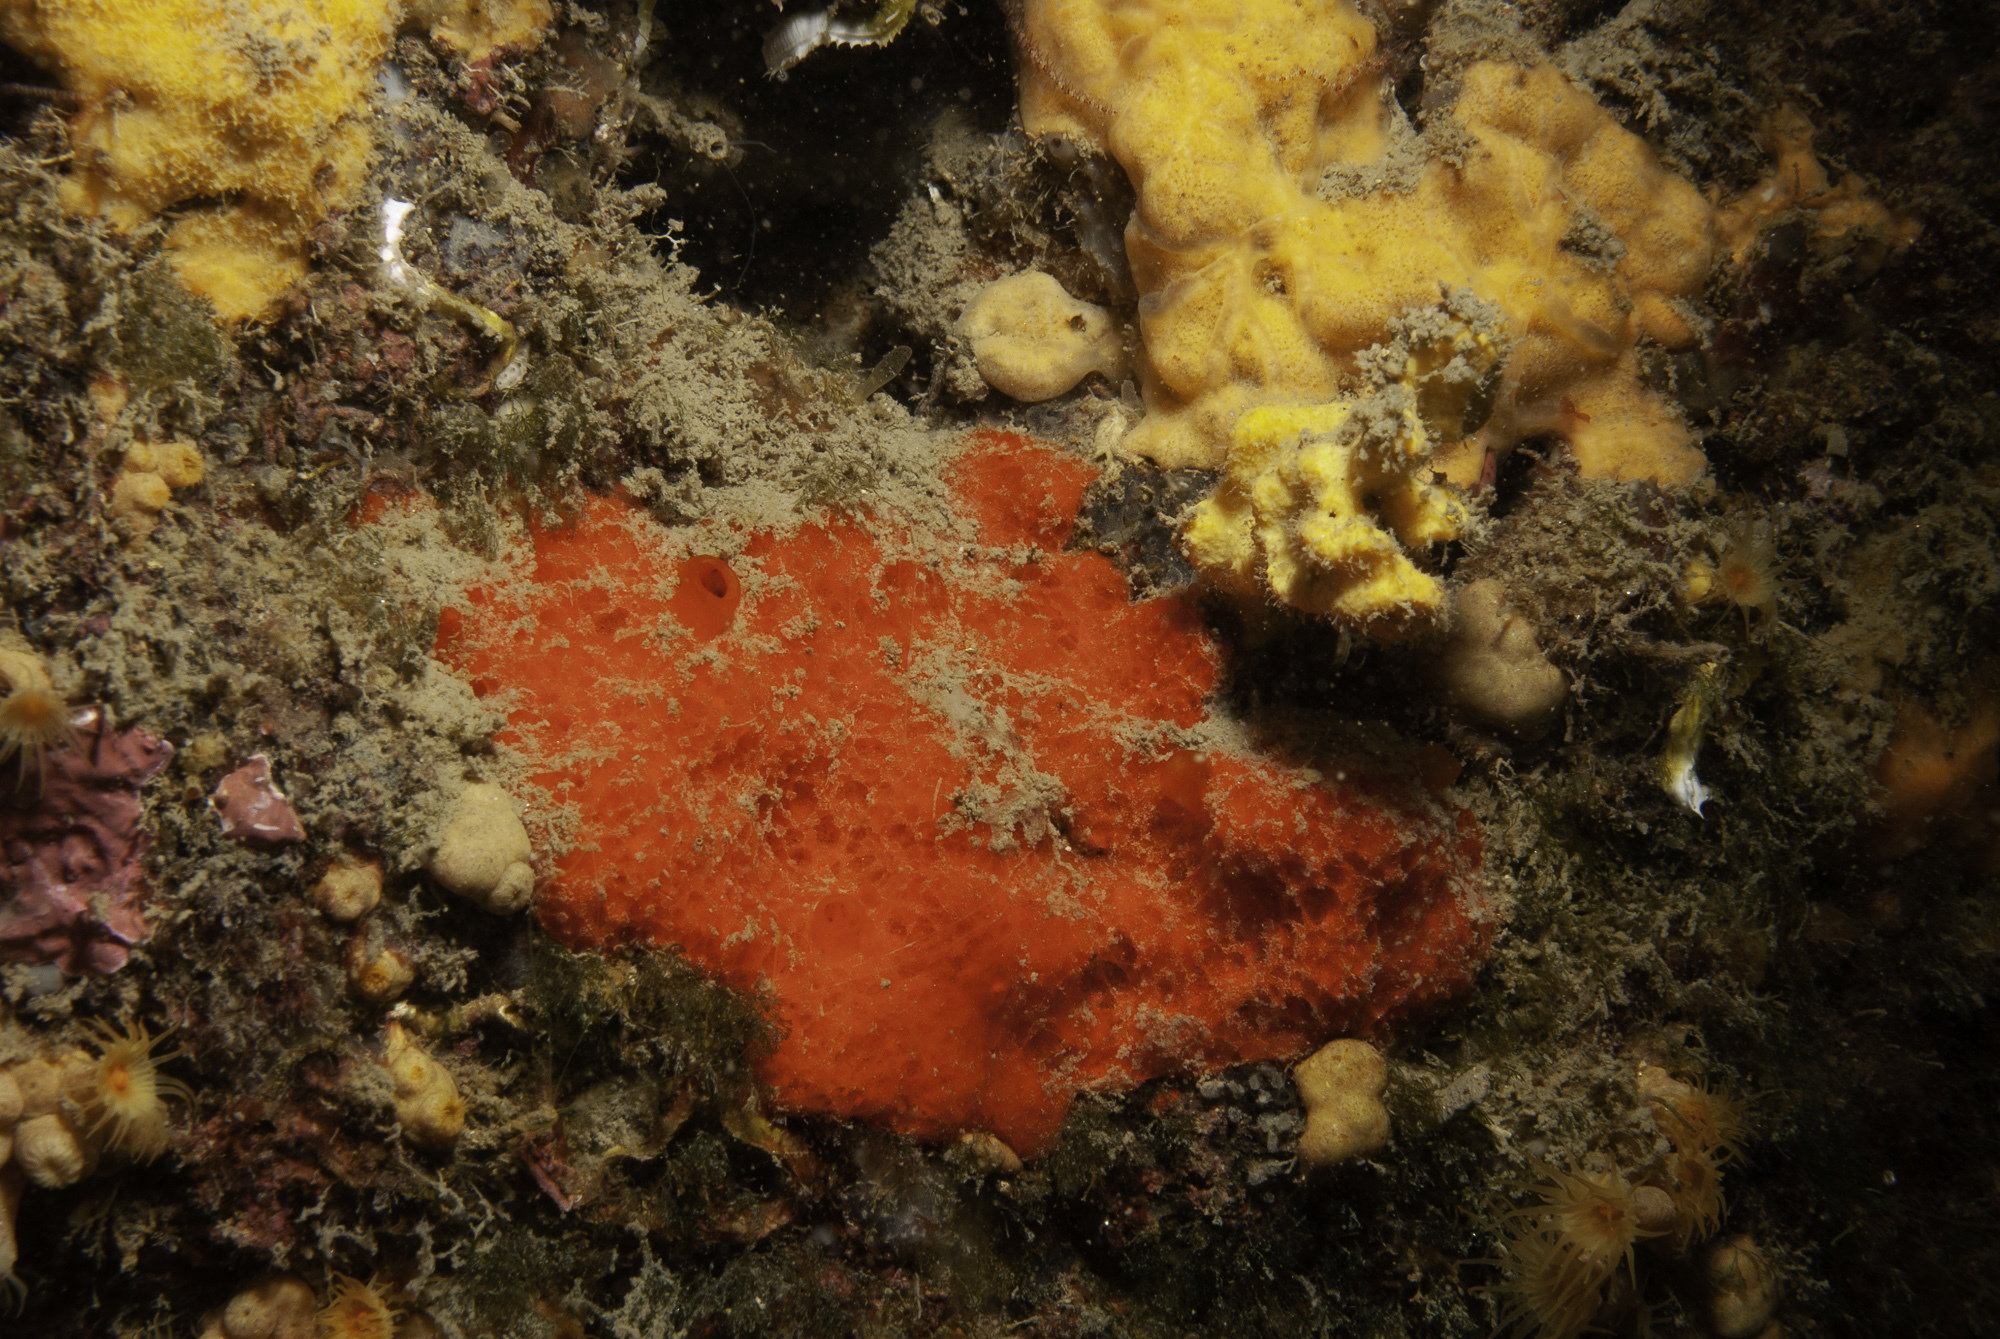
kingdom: Animalia
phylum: Porifera
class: Demospongiae
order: Axinellida
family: Raspailiidae
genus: Raspaciona
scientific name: Raspaciona aculeata
